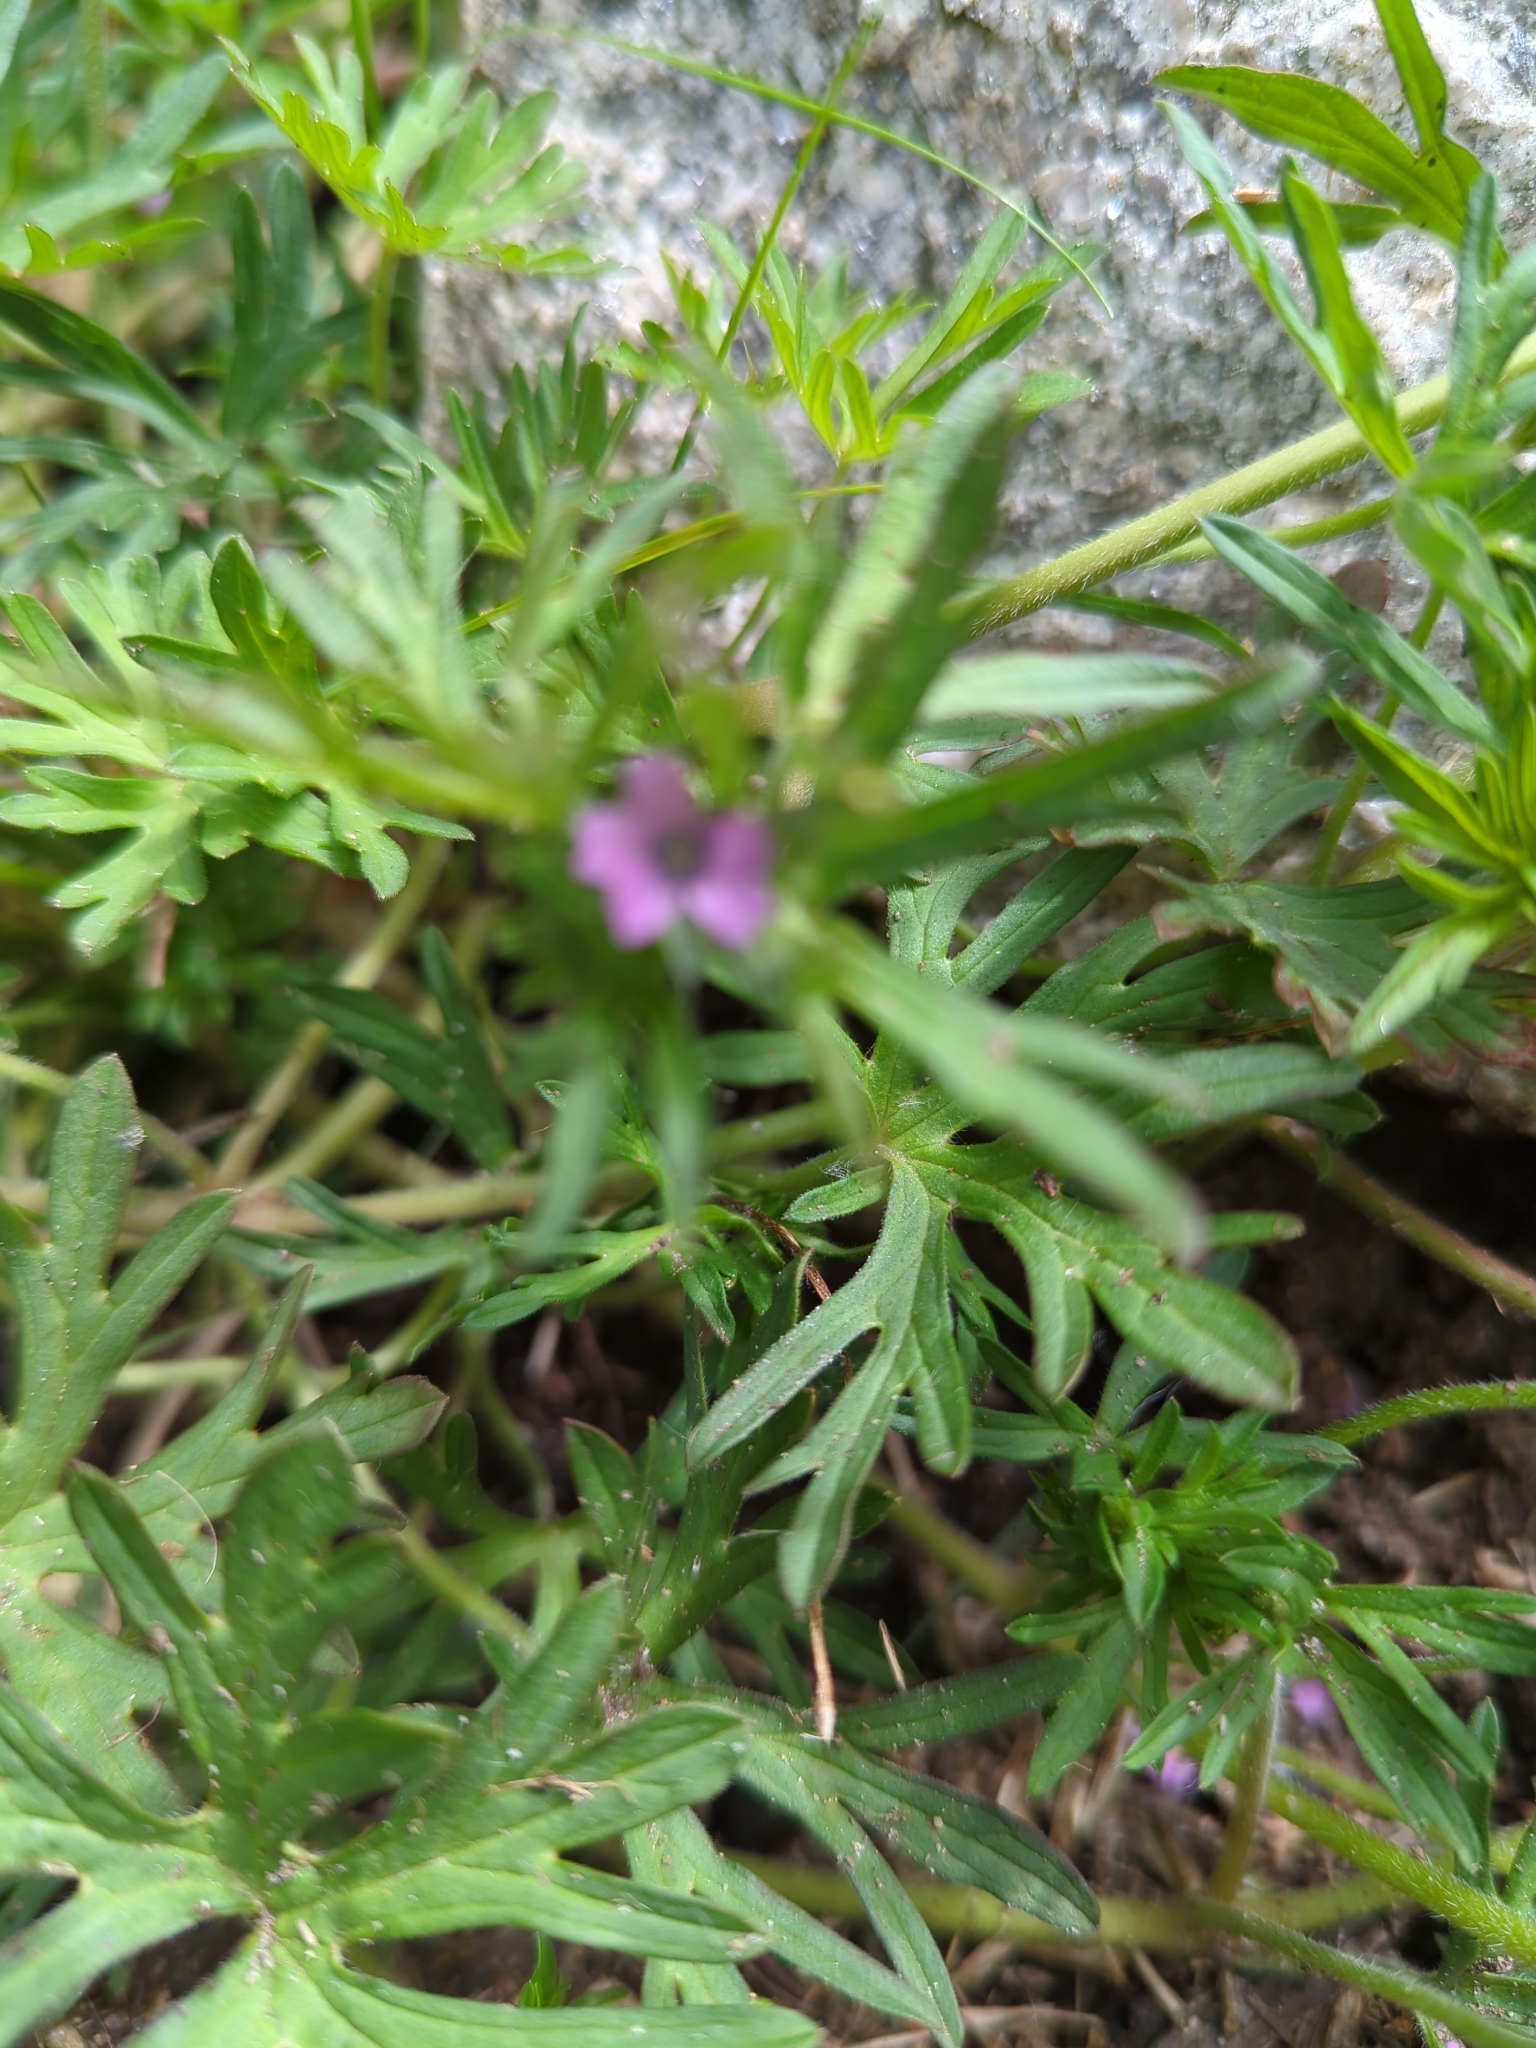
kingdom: Plantae
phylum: Tracheophyta
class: Magnoliopsida
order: Geraniales
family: Geraniaceae
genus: Geranium
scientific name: Geranium dissectum
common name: Cut-leaved crane's-bill
